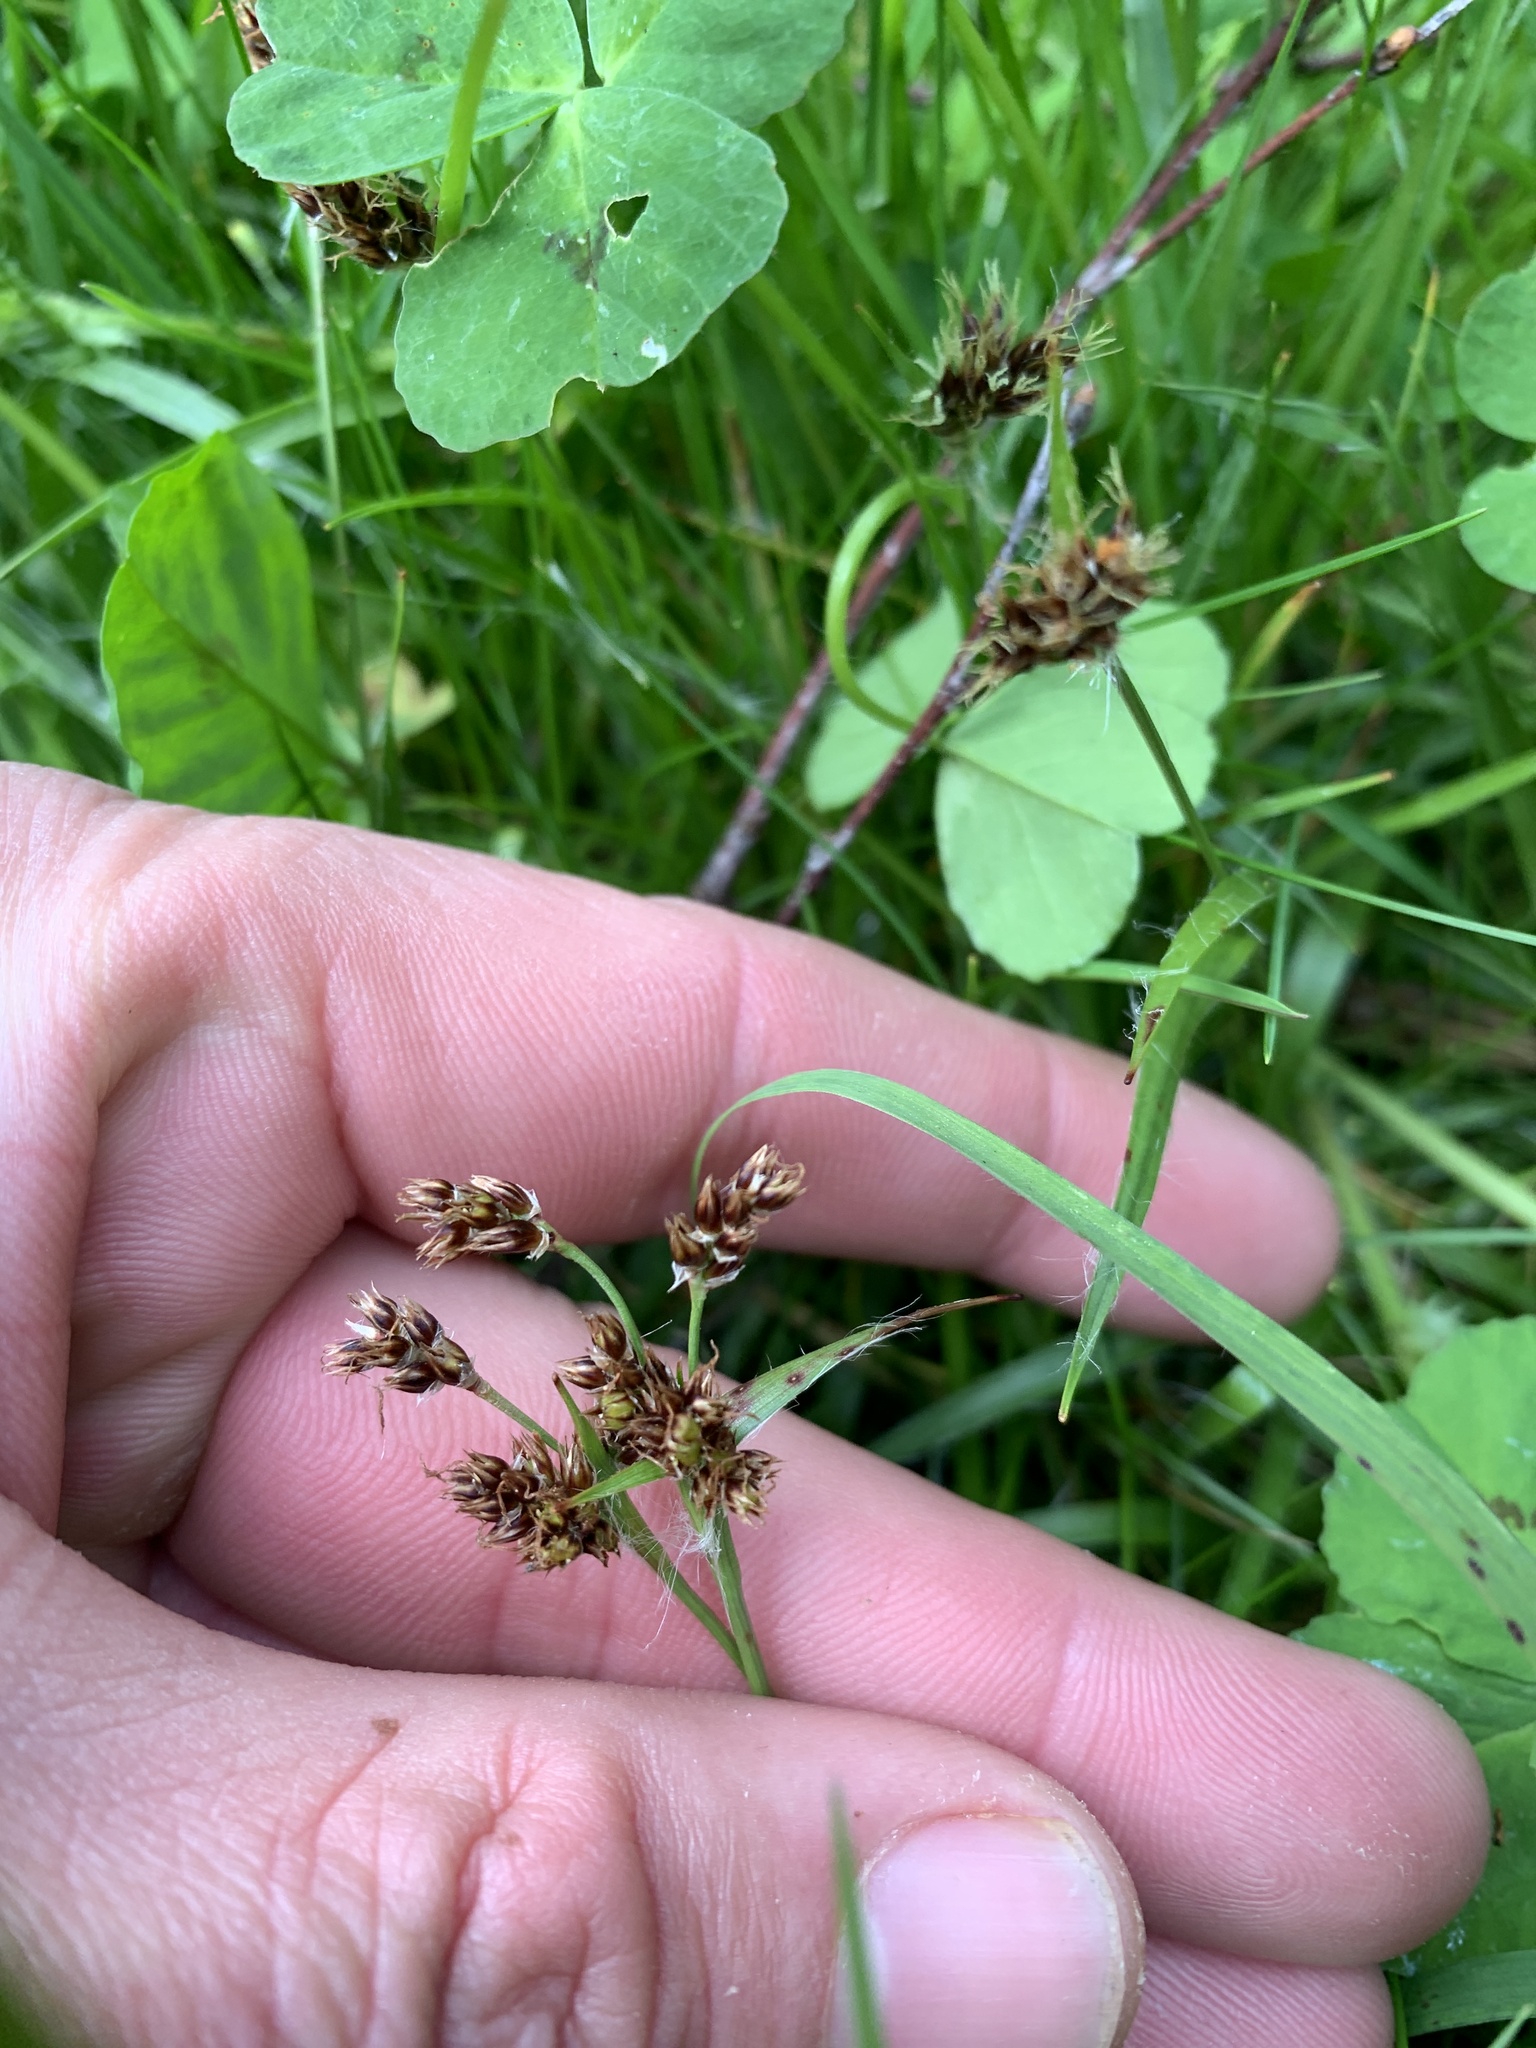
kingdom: Plantae
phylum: Tracheophyta
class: Liliopsida
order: Poales
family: Juncaceae
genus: Luzula
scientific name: Luzula campestris
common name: Field wood-rush
